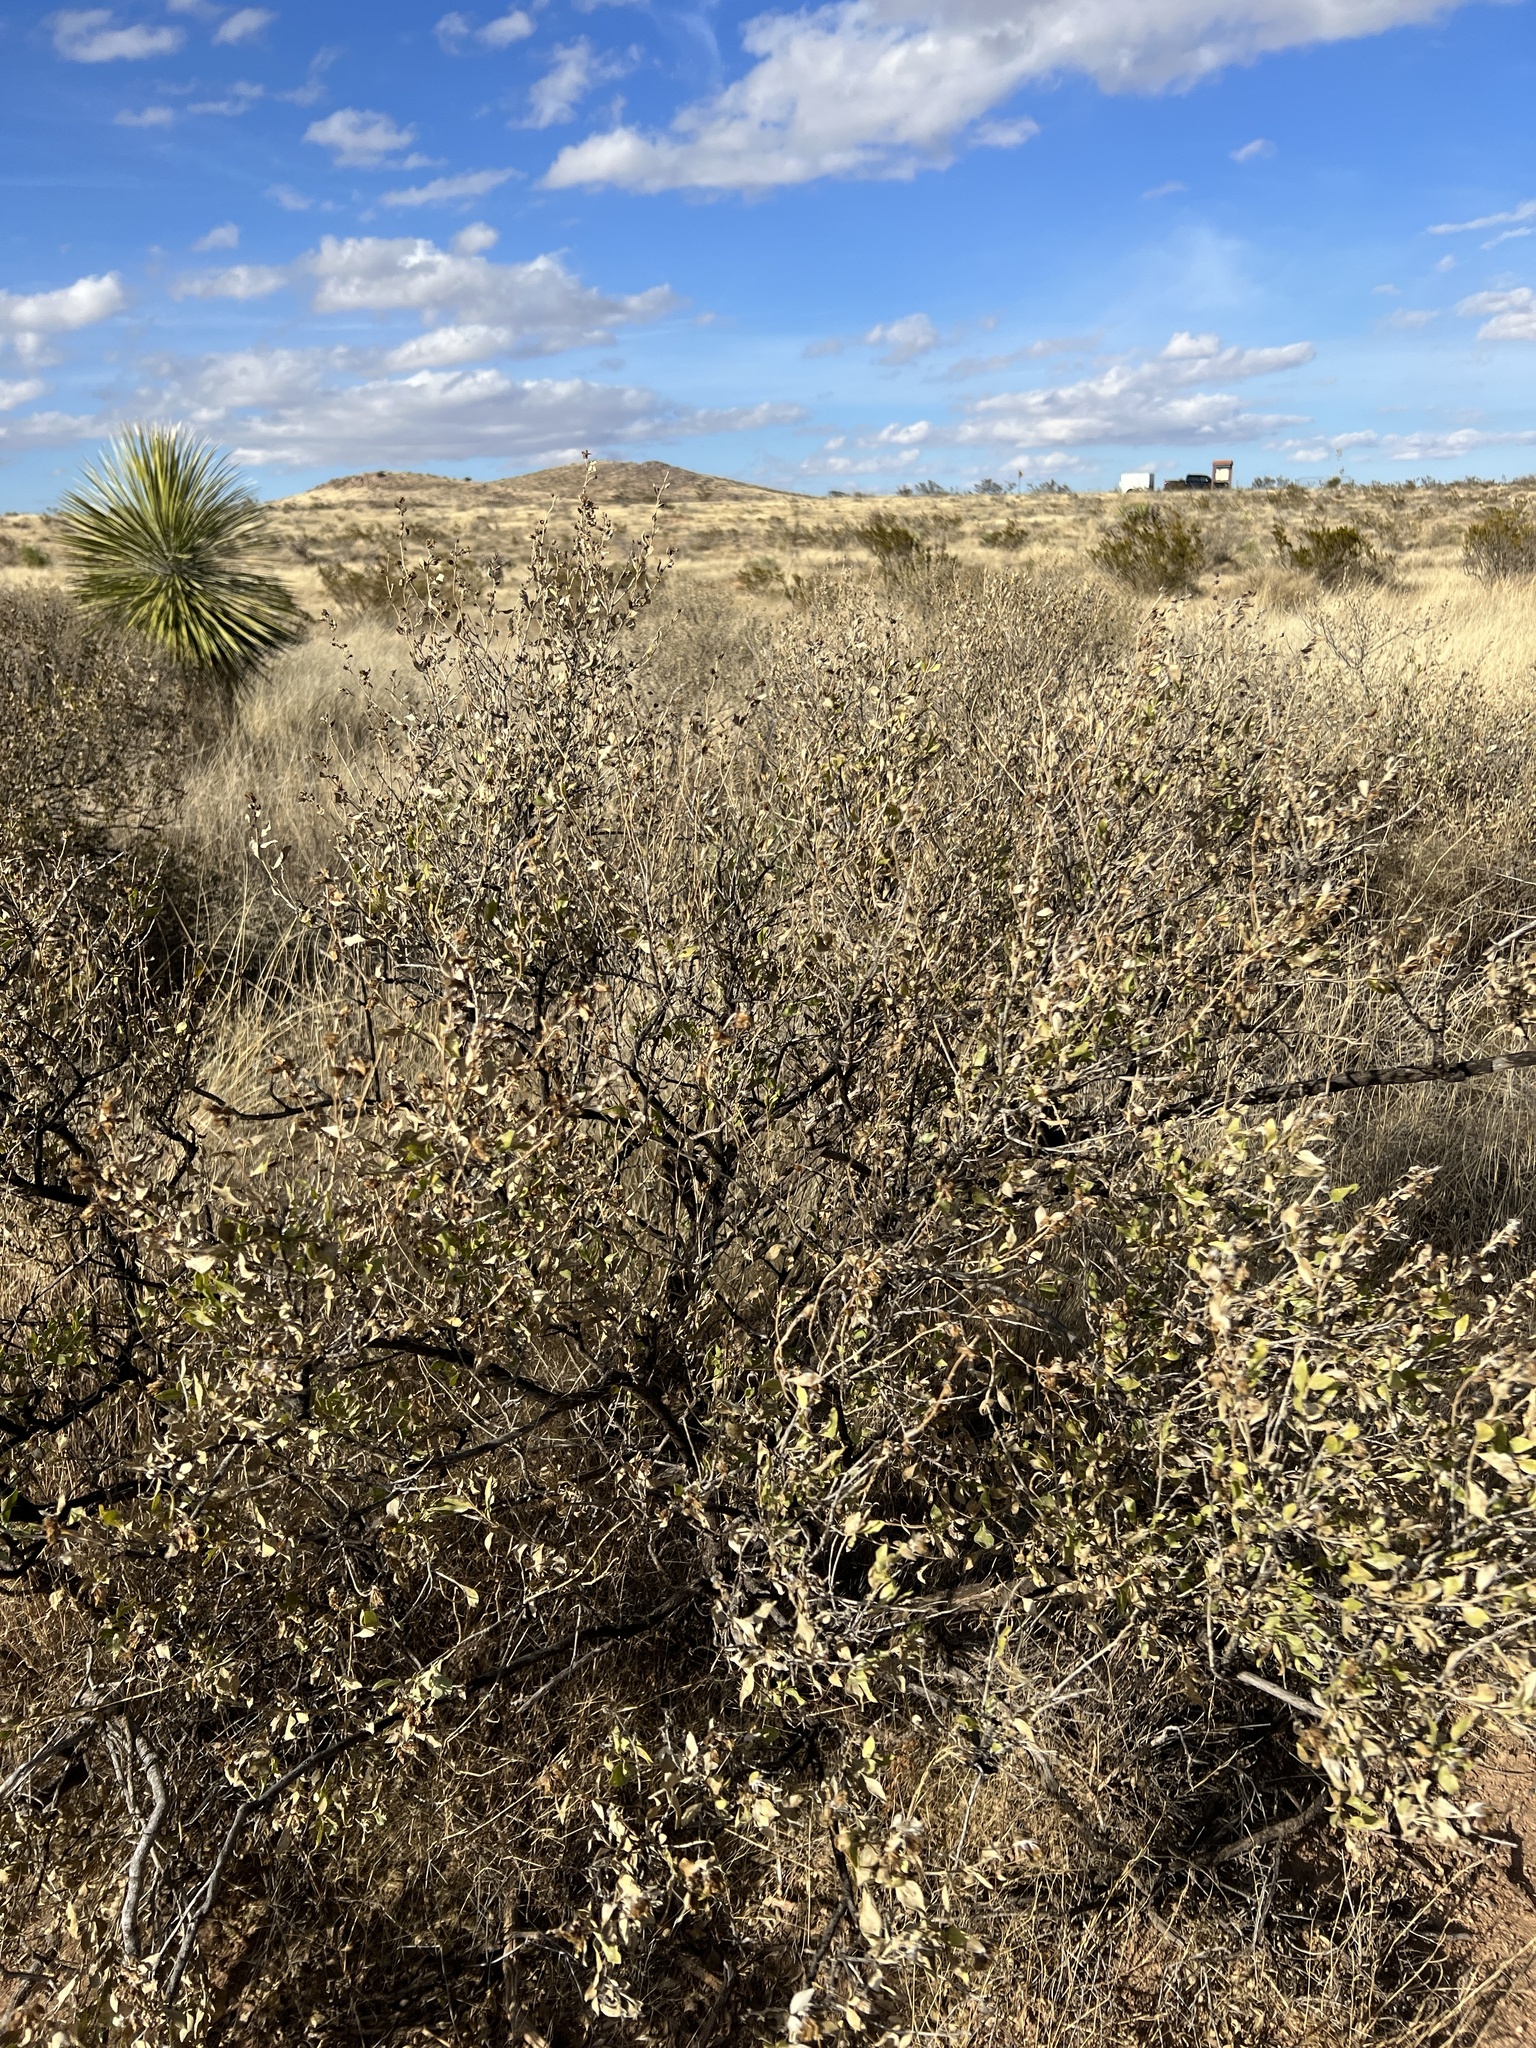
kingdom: Plantae
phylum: Tracheophyta
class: Magnoliopsida
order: Asterales
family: Asteraceae
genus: Flourensia
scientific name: Flourensia cernua
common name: Varnishbush
